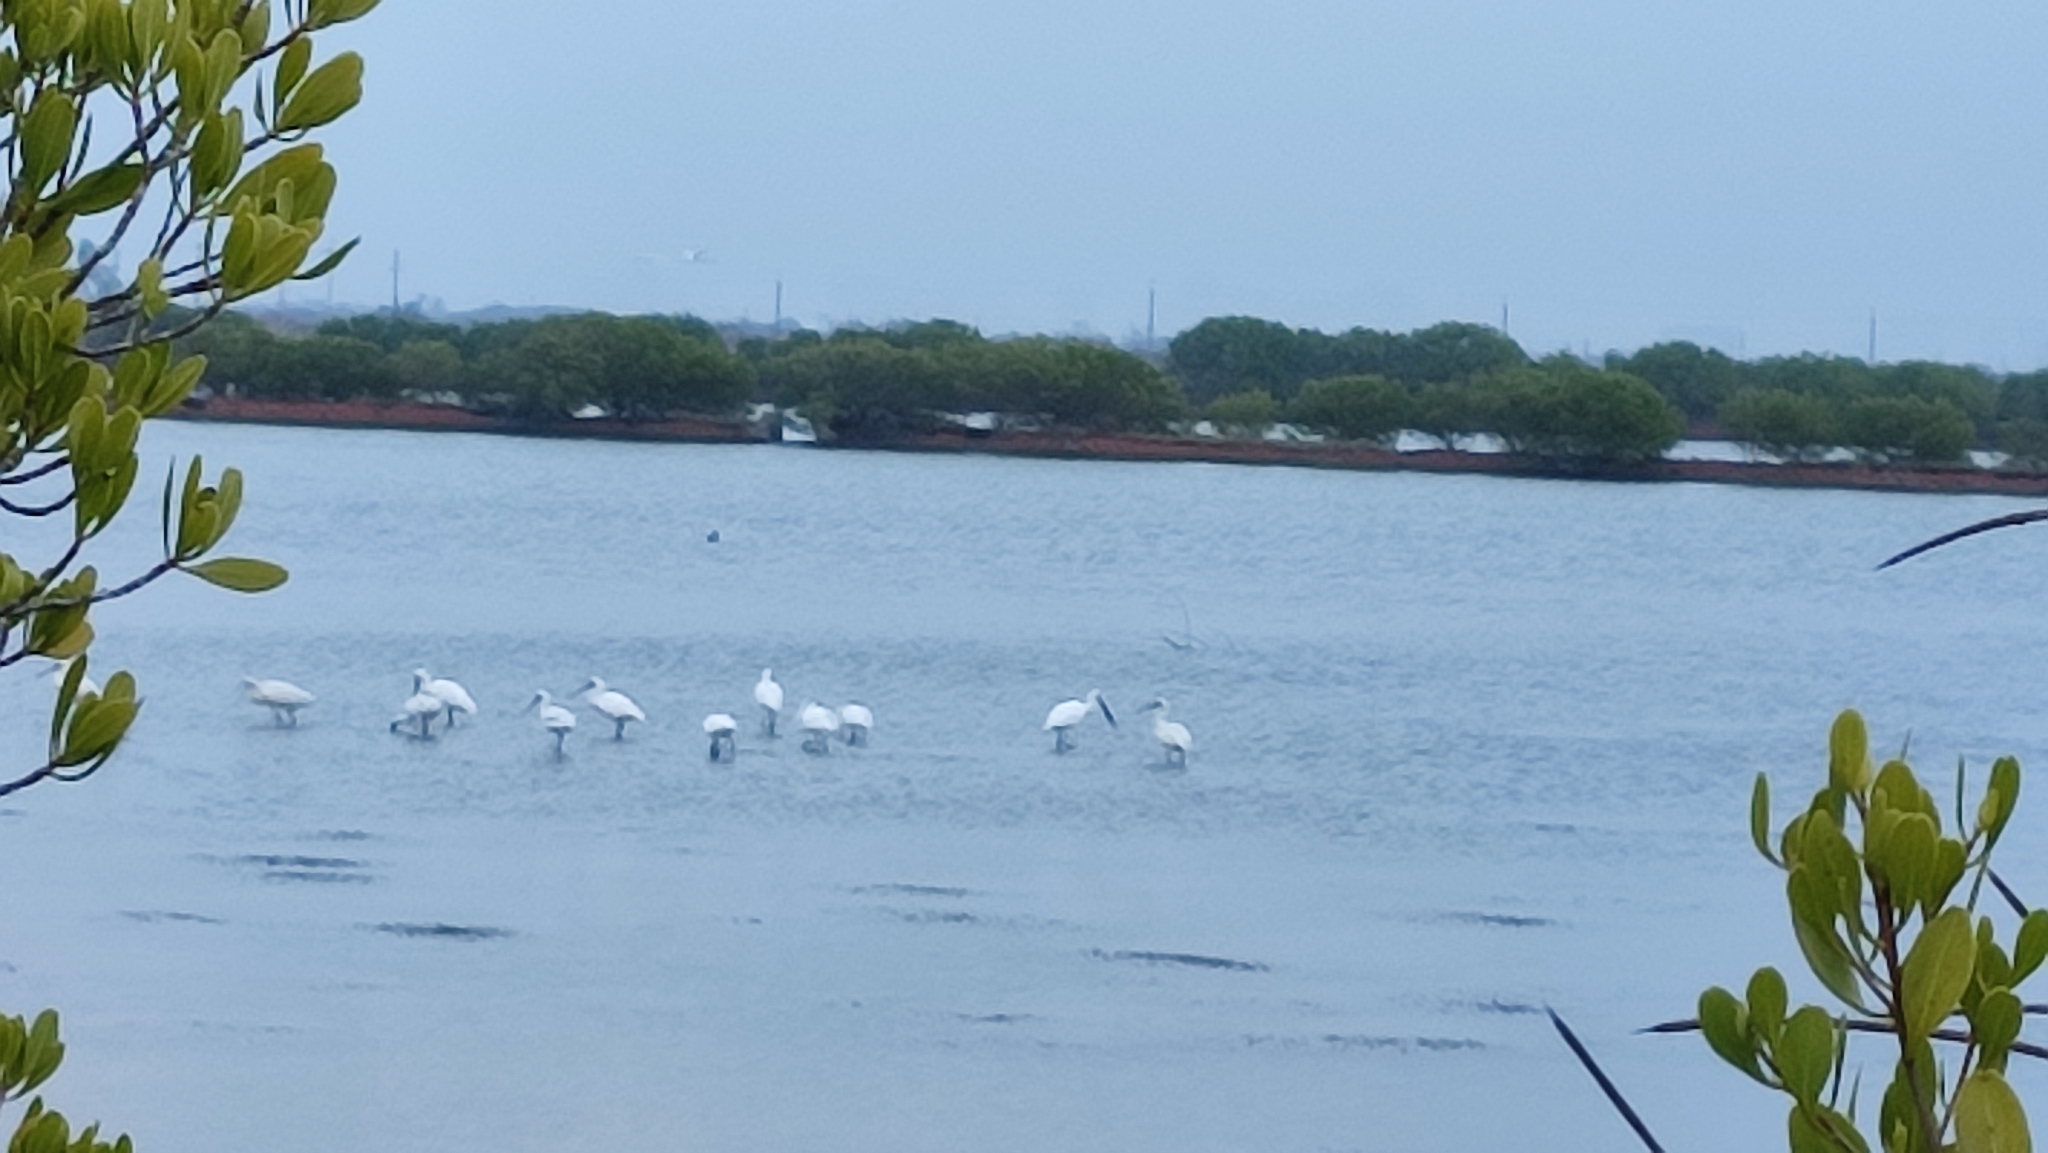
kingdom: Animalia
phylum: Chordata
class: Aves
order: Pelecaniformes
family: Threskiornithidae
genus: Platalea
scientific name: Platalea minor
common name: Black-faced spoonbill
